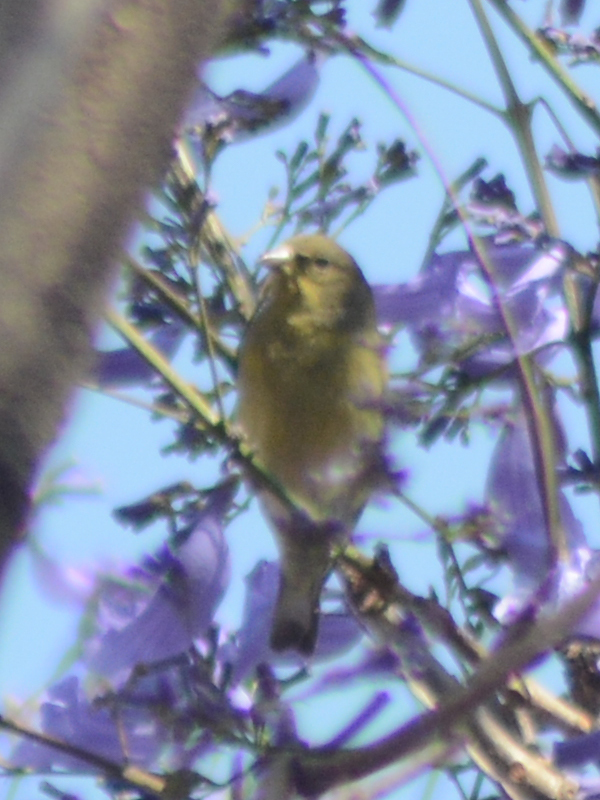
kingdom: Animalia
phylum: Chordata
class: Aves
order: Passeriformes
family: Fringillidae
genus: Spinus
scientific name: Spinus psaltria
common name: Lesser goldfinch
